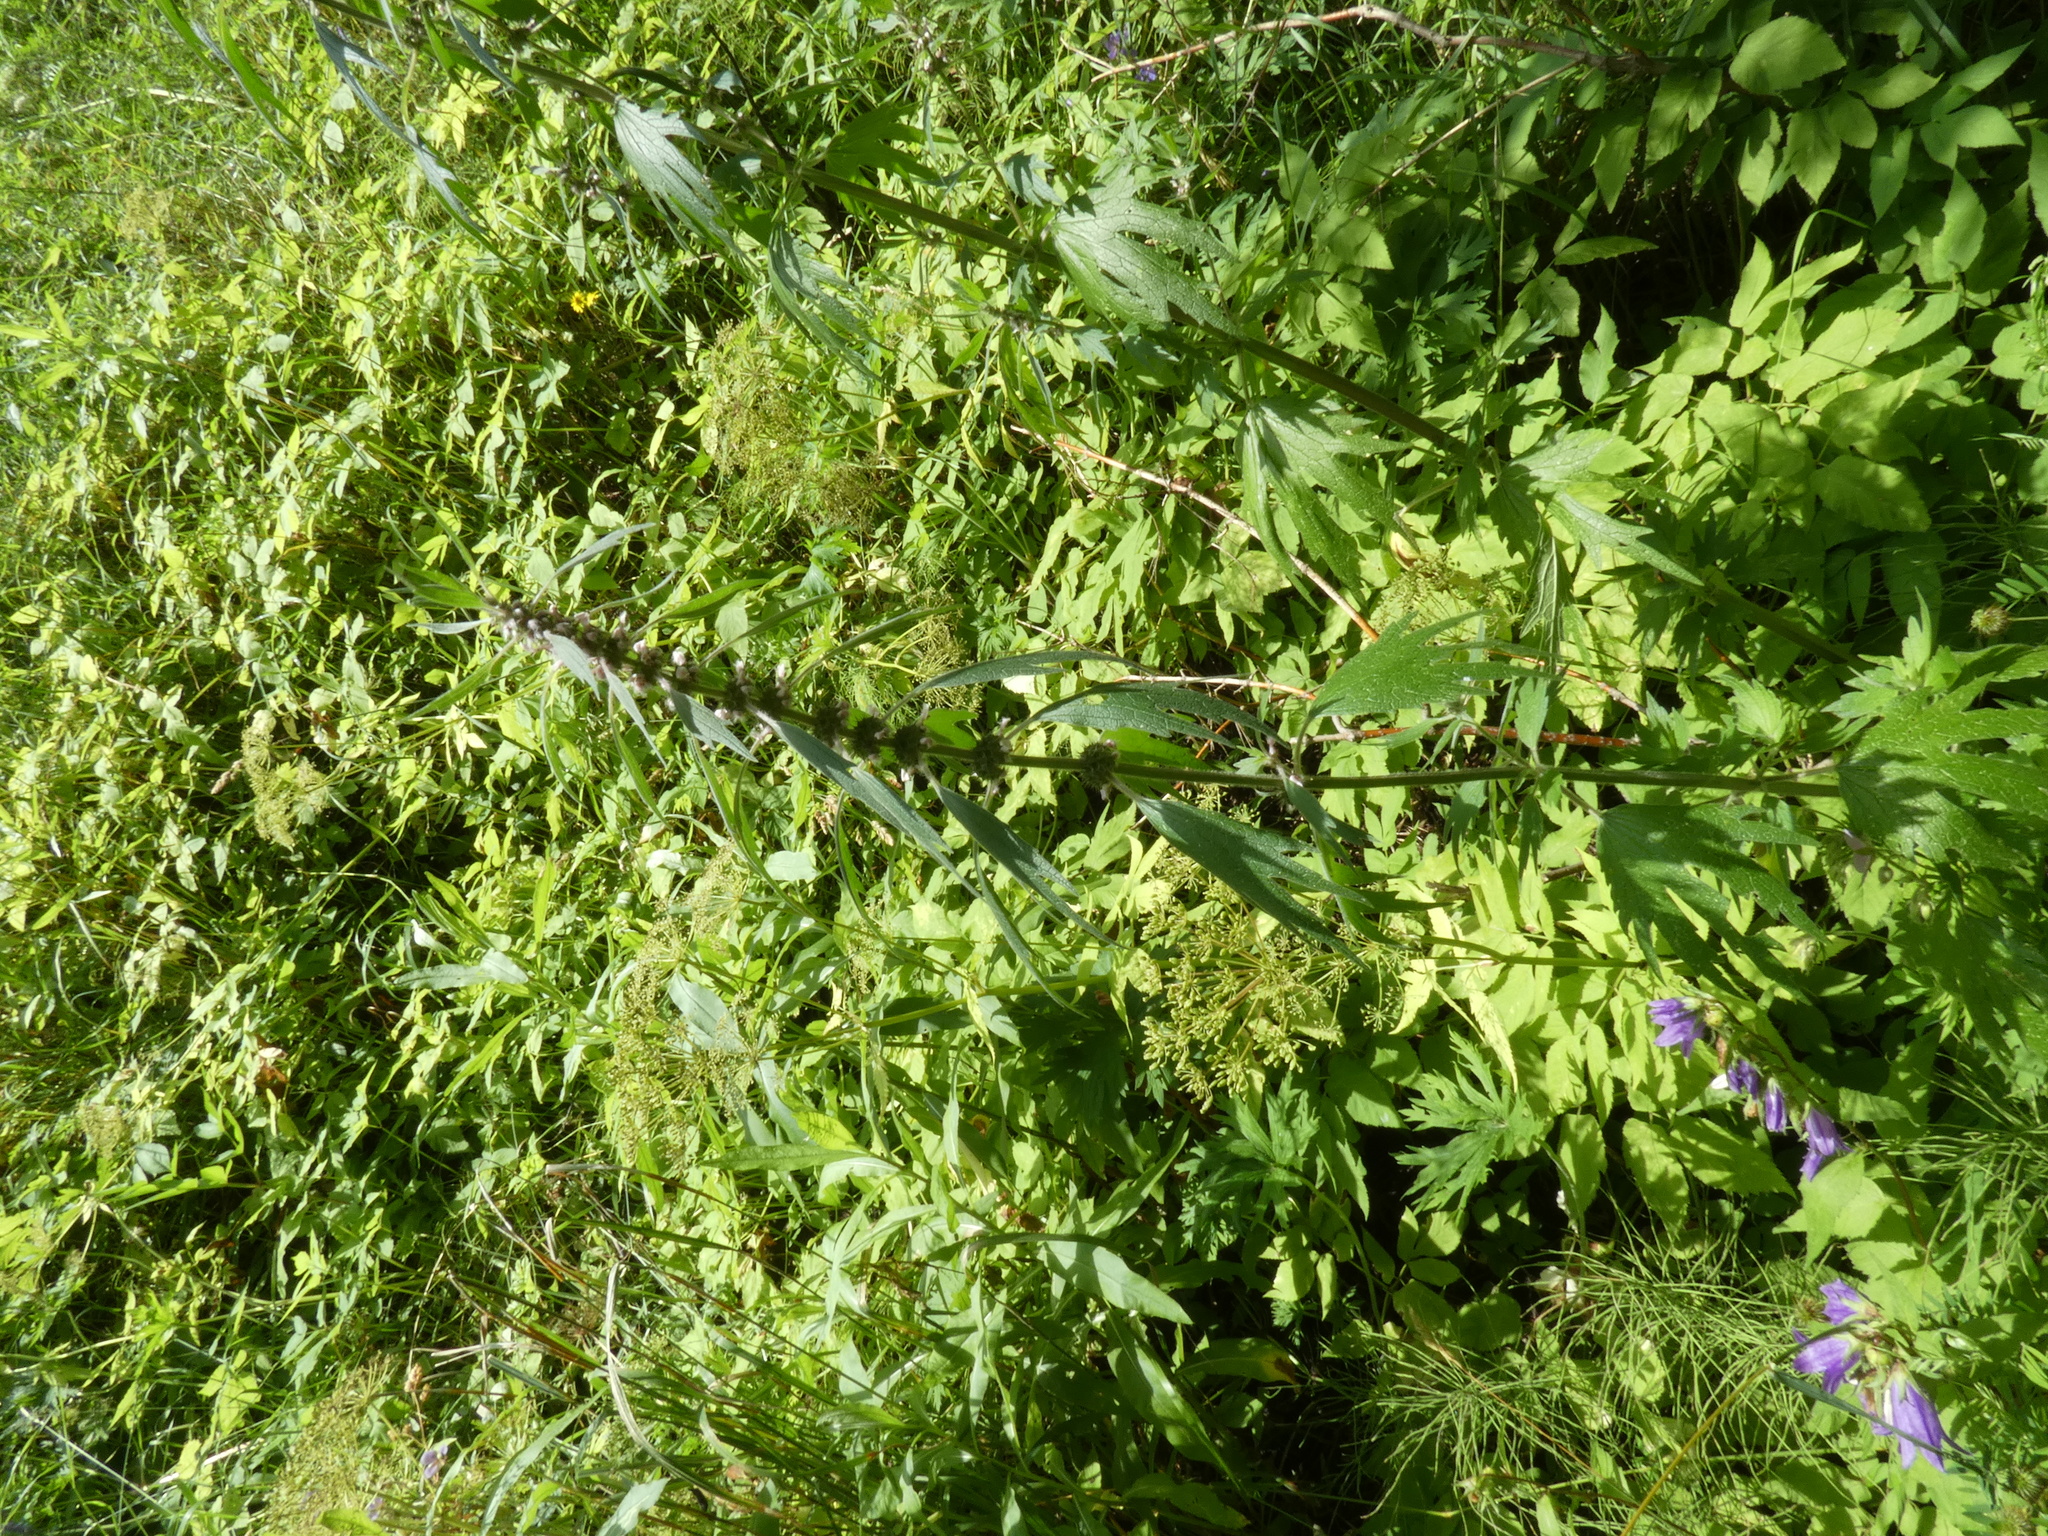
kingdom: Plantae
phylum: Tracheophyta
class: Magnoliopsida
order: Lamiales
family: Lamiaceae
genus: Leonurus
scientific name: Leonurus quinquelobatus
